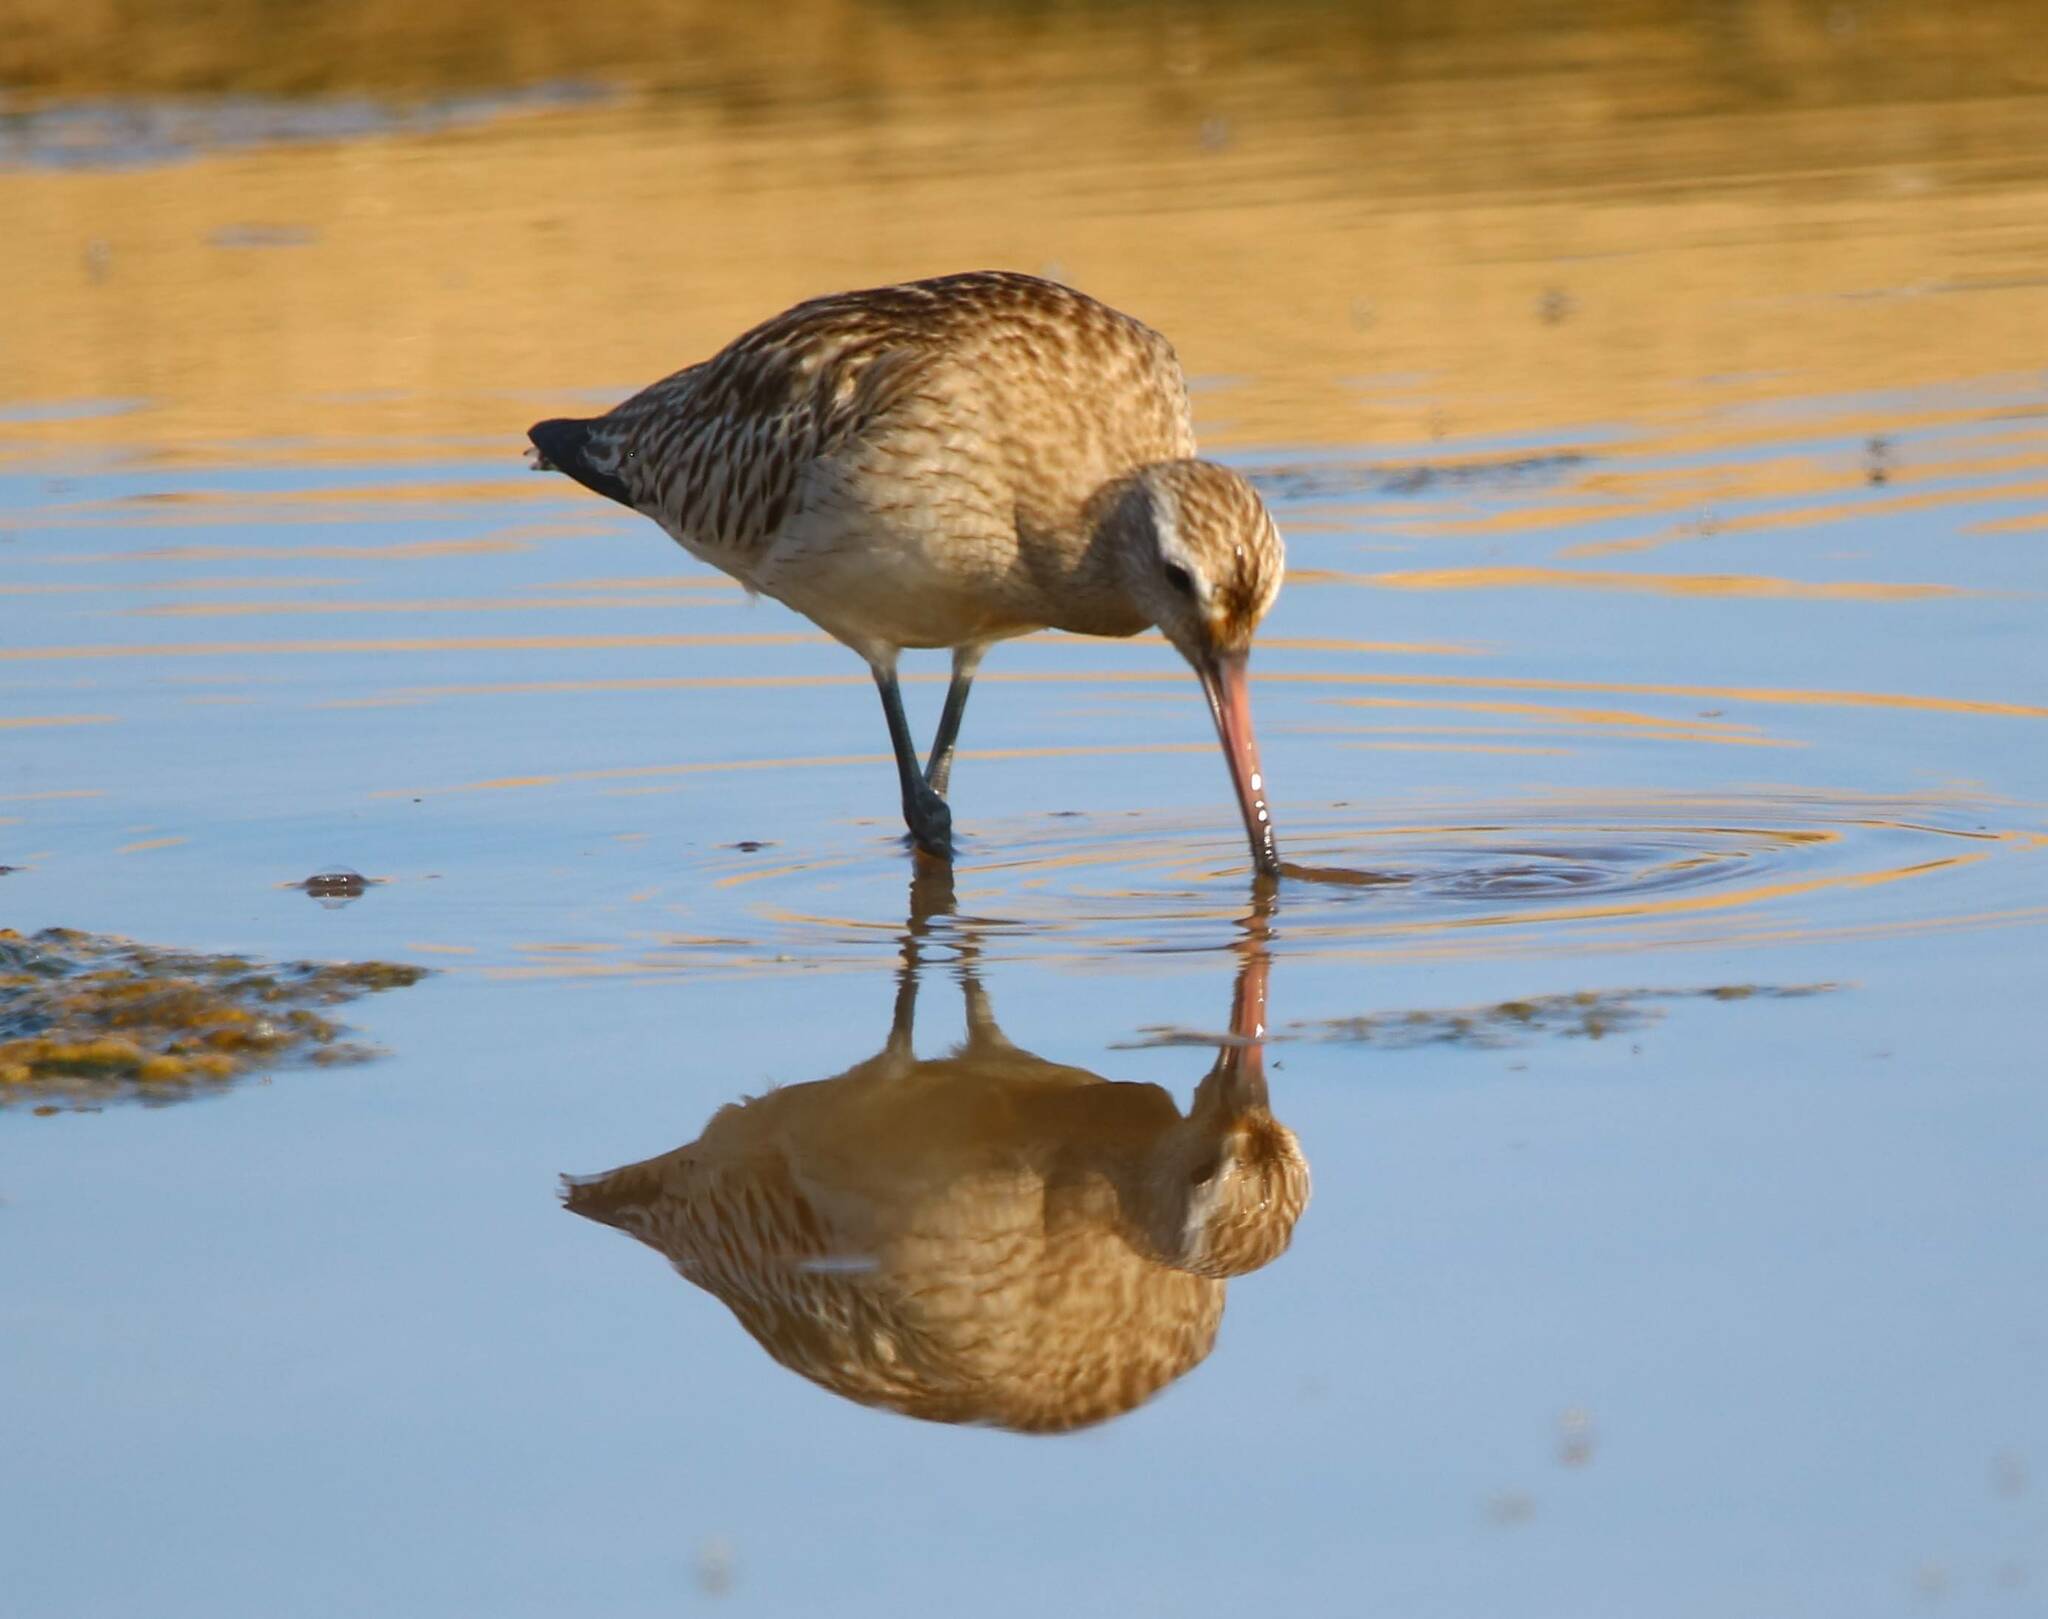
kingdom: Animalia
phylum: Chordata
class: Aves
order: Charadriiformes
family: Scolopacidae
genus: Limosa
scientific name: Limosa lapponica
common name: Bar-tailed godwit
